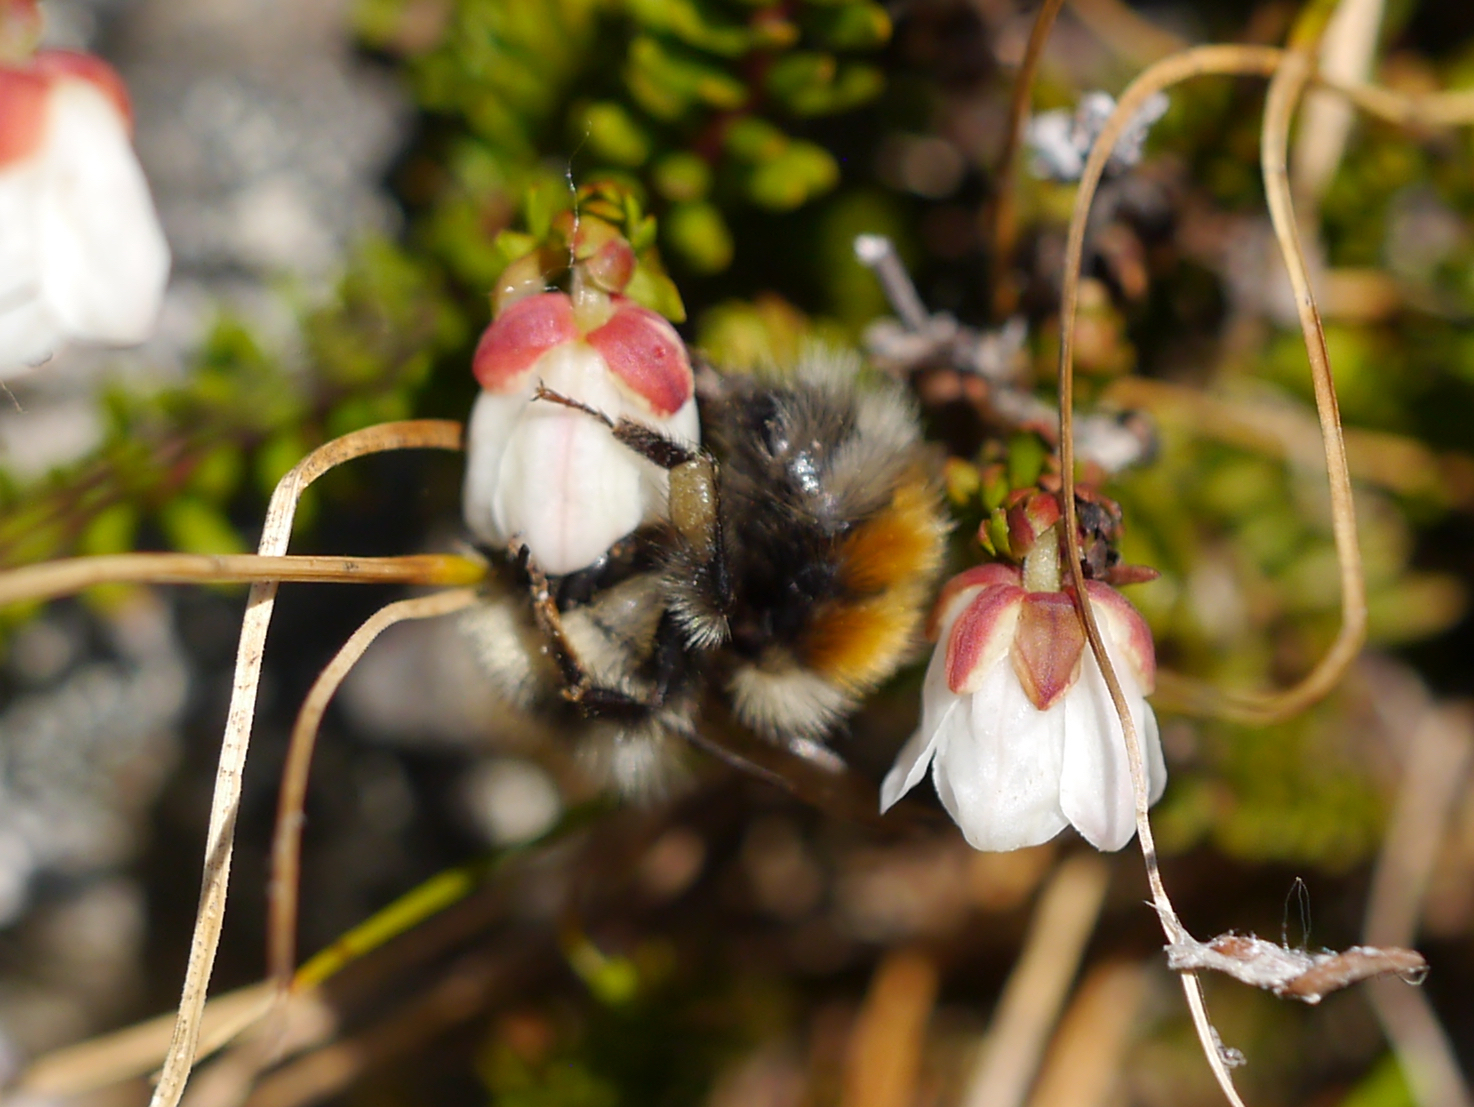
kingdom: Animalia
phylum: Arthropoda
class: Insecta
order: Hymenoptera
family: Apidae
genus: Bombus
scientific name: Bombus sylvicola
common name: Forest bumble bee
